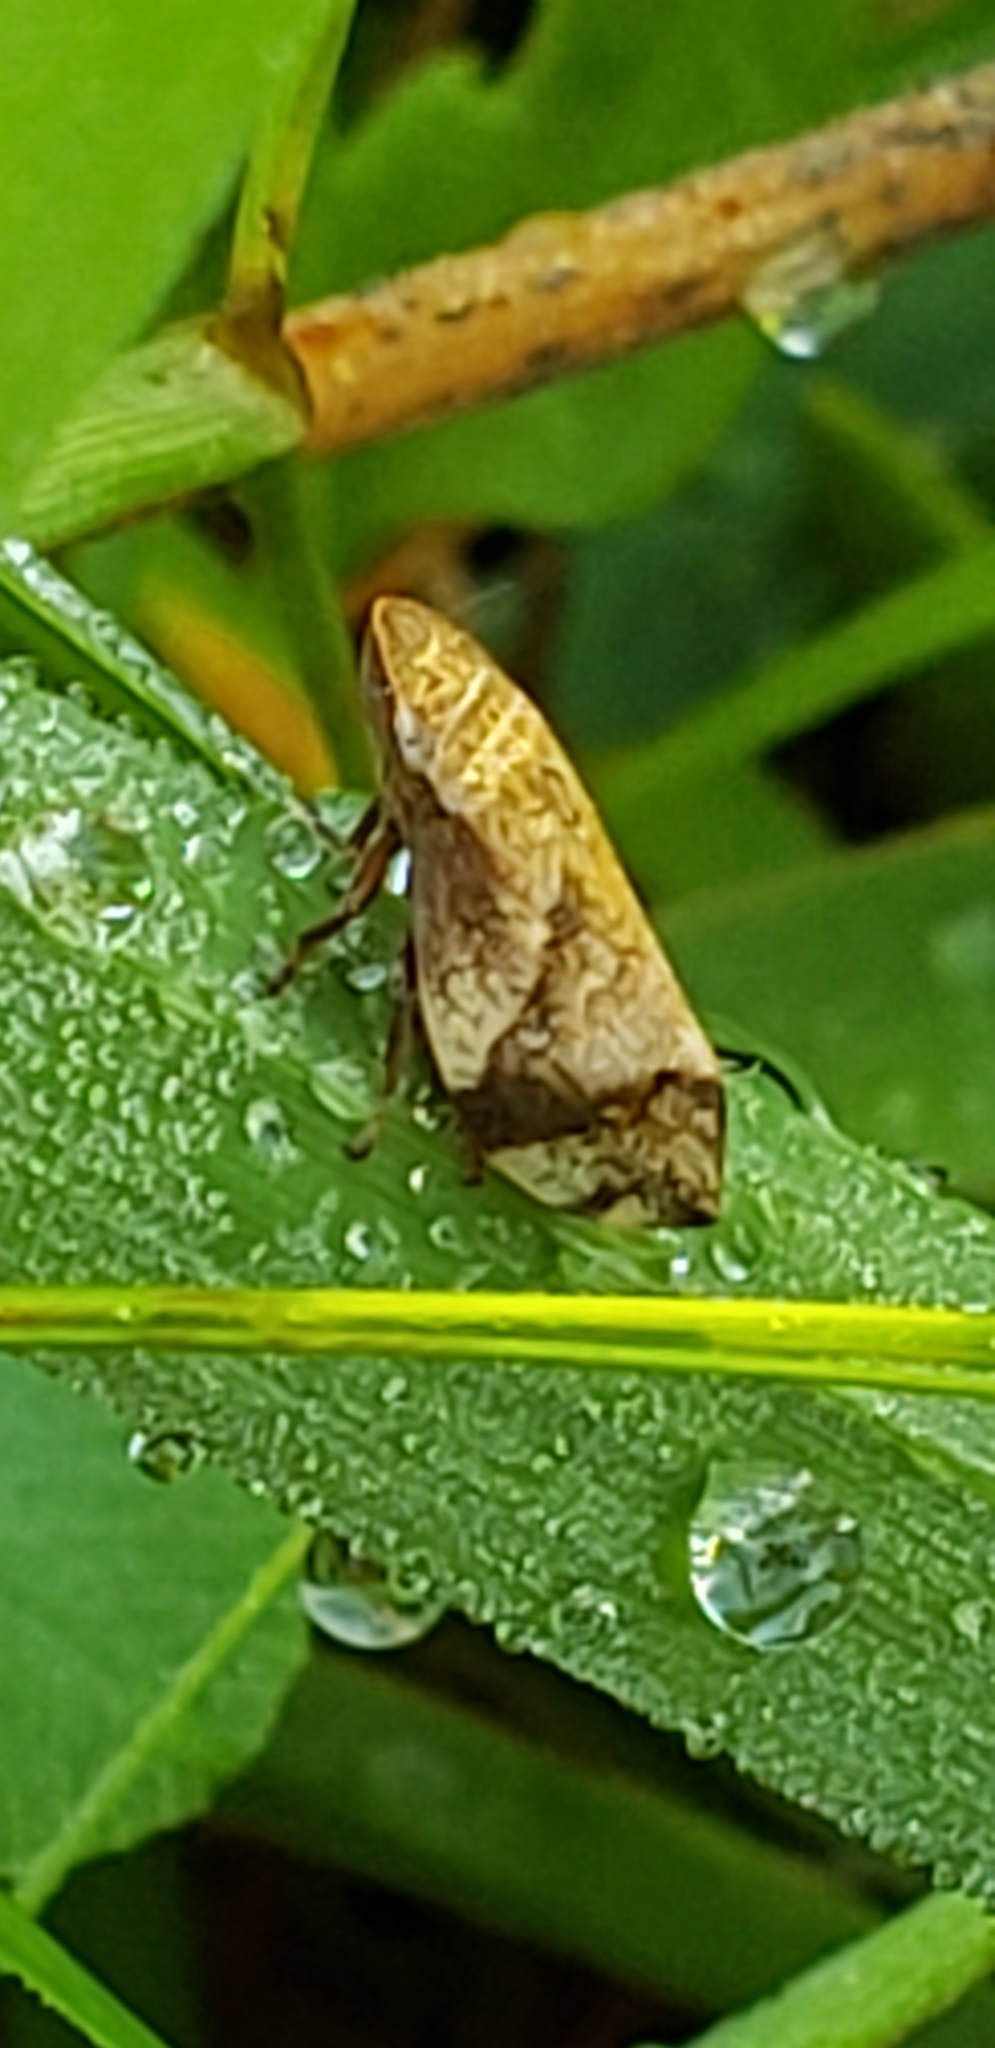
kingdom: Animalia
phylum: Arthropoda
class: Insecta
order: Hemiptera
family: Aphrophoridae
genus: Lepyronia
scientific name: Lepyronia quadrangularis
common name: Diamond-backed spittlebug
